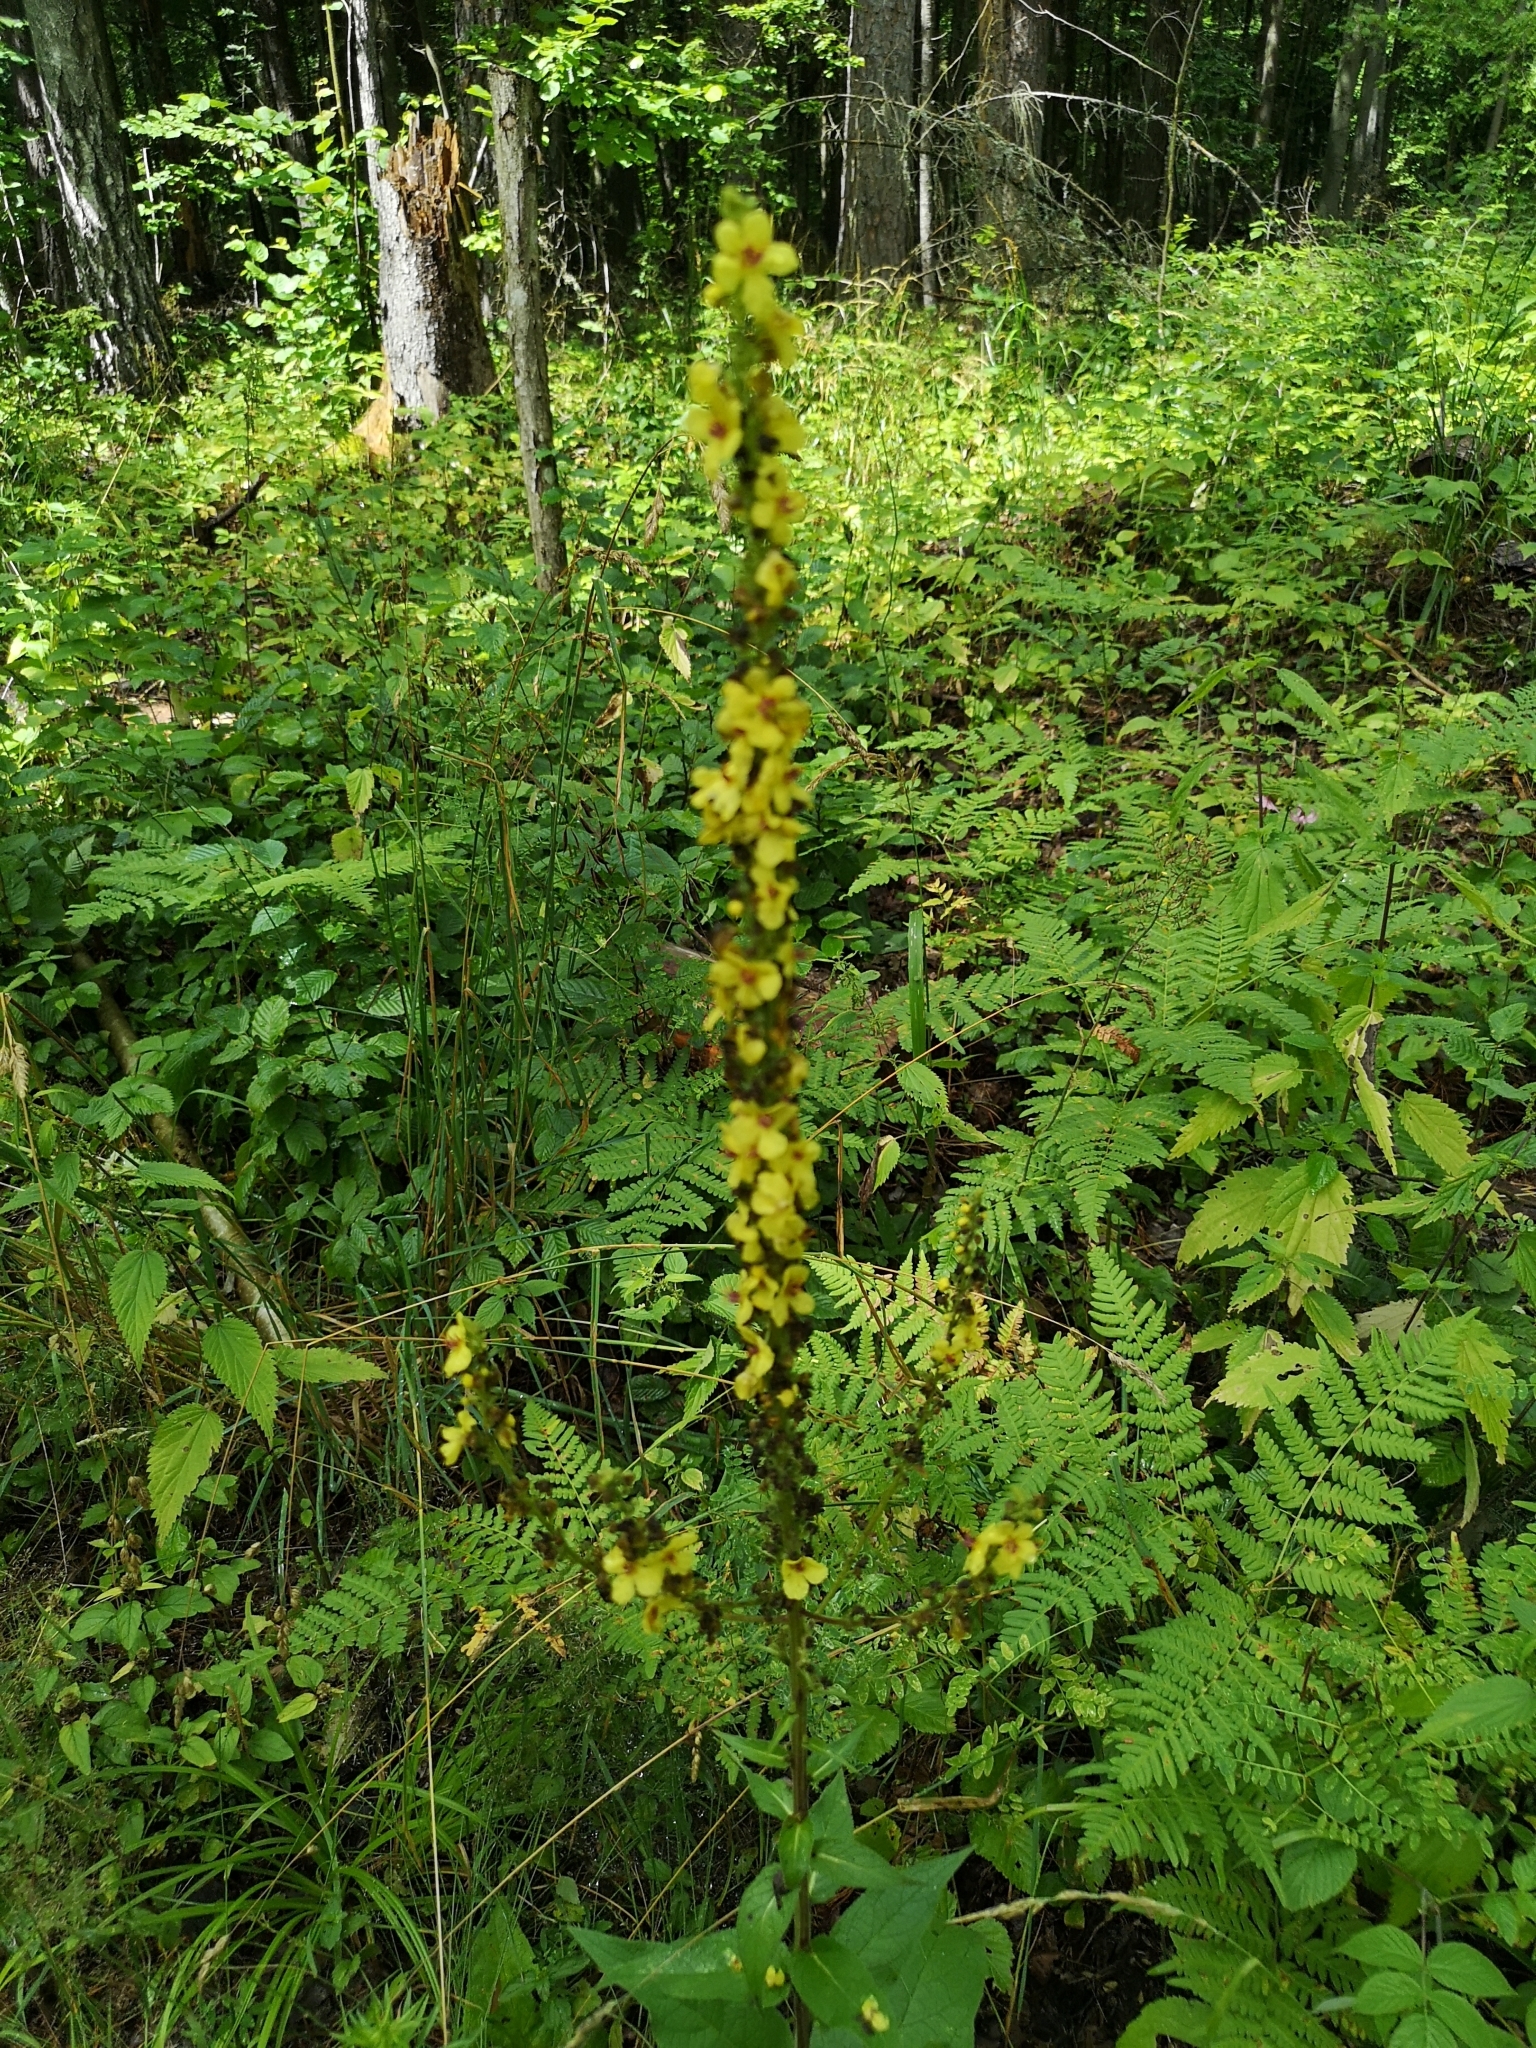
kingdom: Plantae
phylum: Tracheophyta
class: Magnoliopsida
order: Lamiales
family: Scrophulariaceae
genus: Verbascum
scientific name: Verbascum nigrum
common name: Dark mullein
